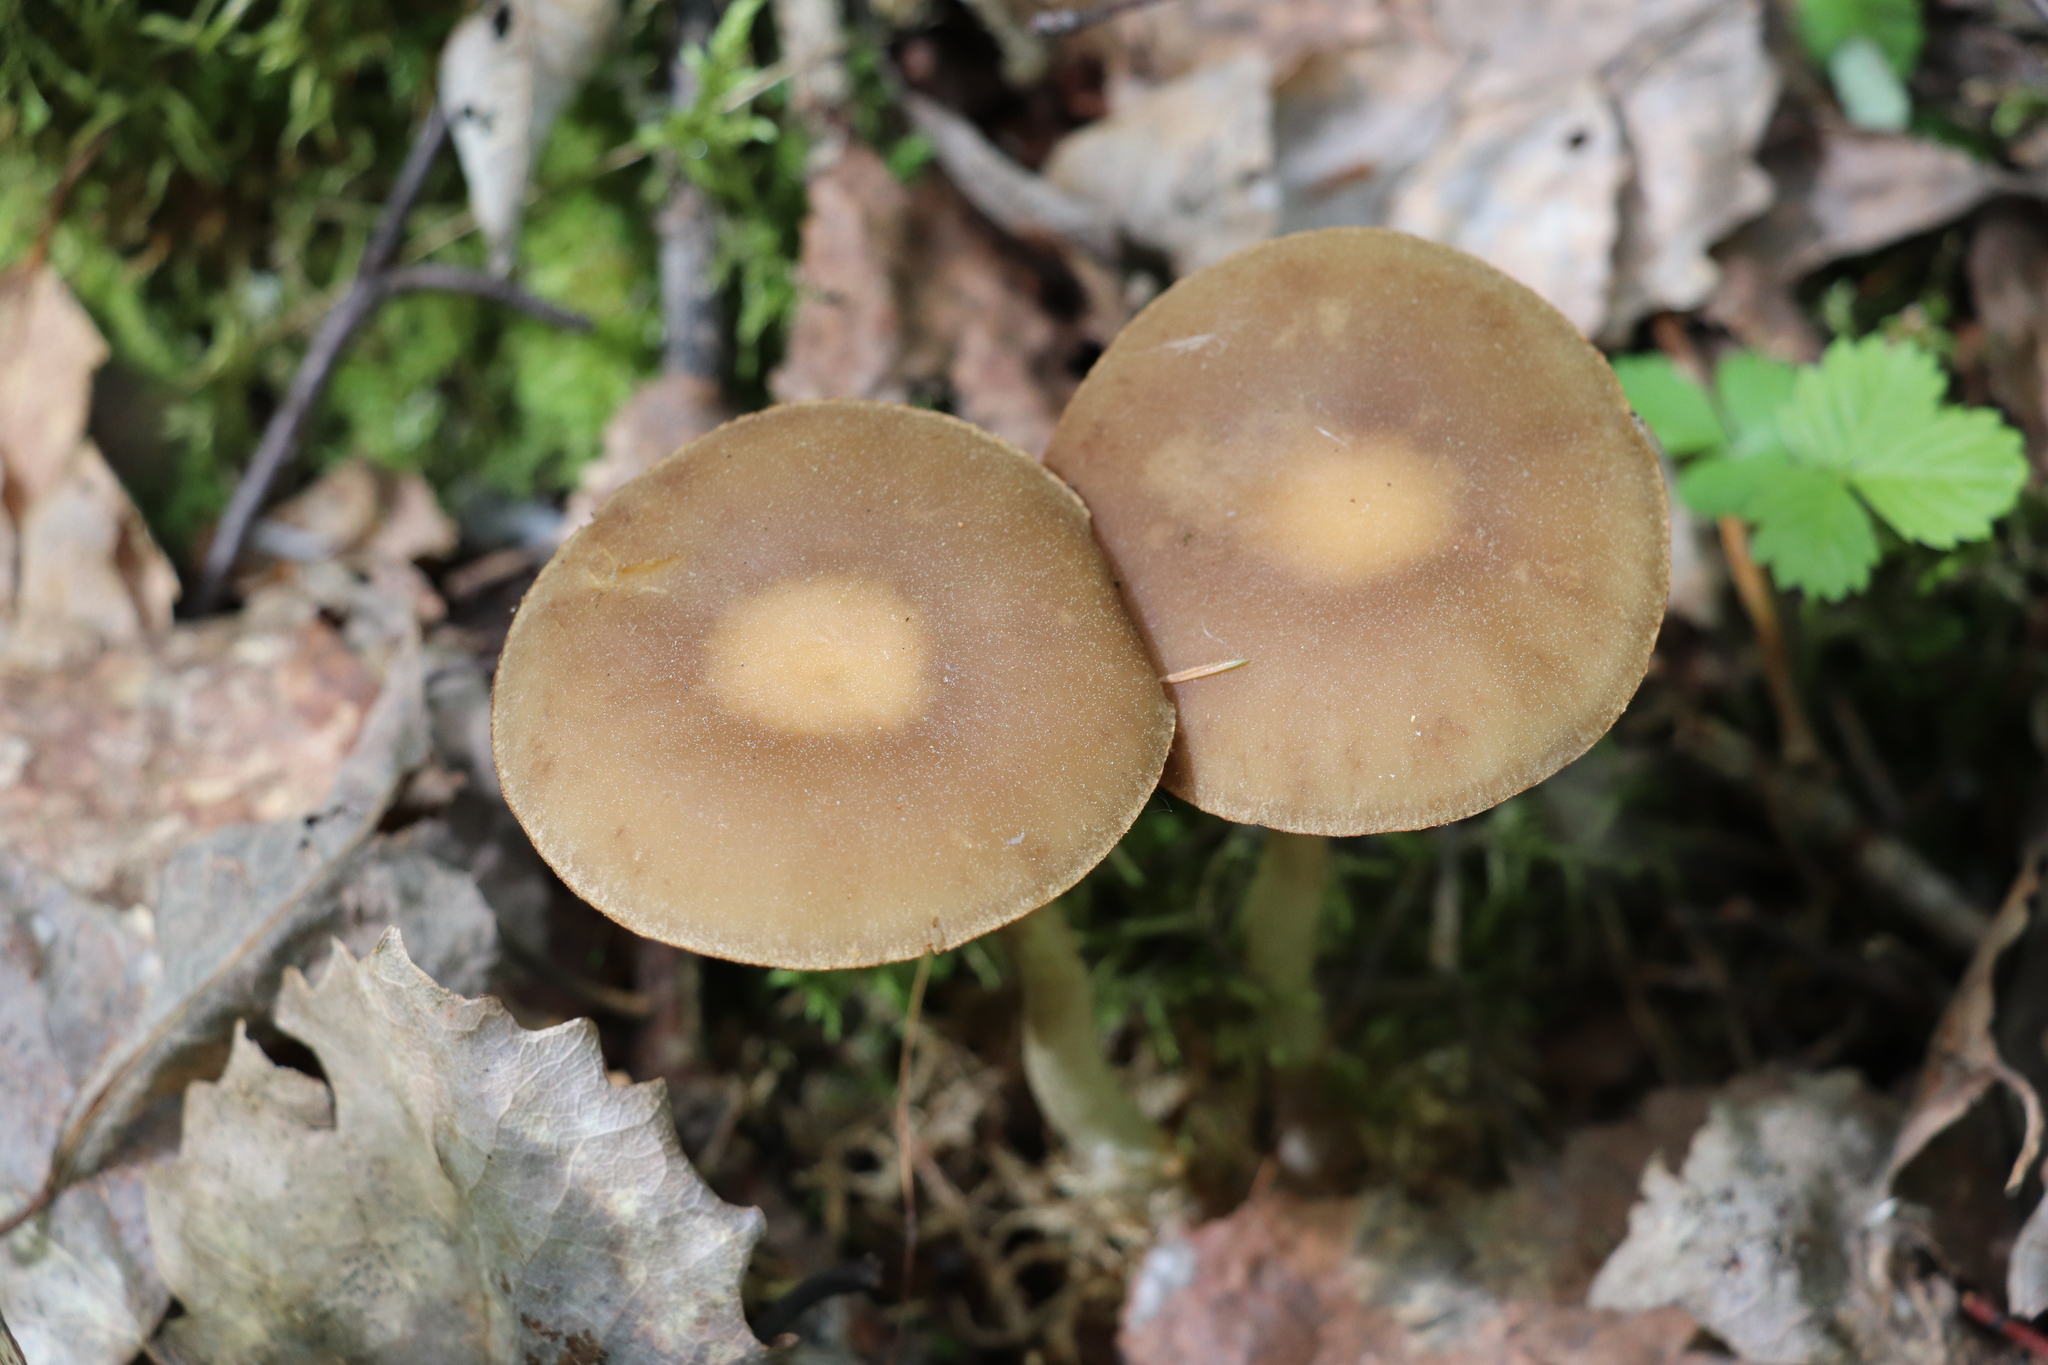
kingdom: Fungi
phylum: Basidiomycota
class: Agaricomycetes
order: Agaricales
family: Strophariaceae
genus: Agrocybe
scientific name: Agrocybe praecox
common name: Spring fieldcap
